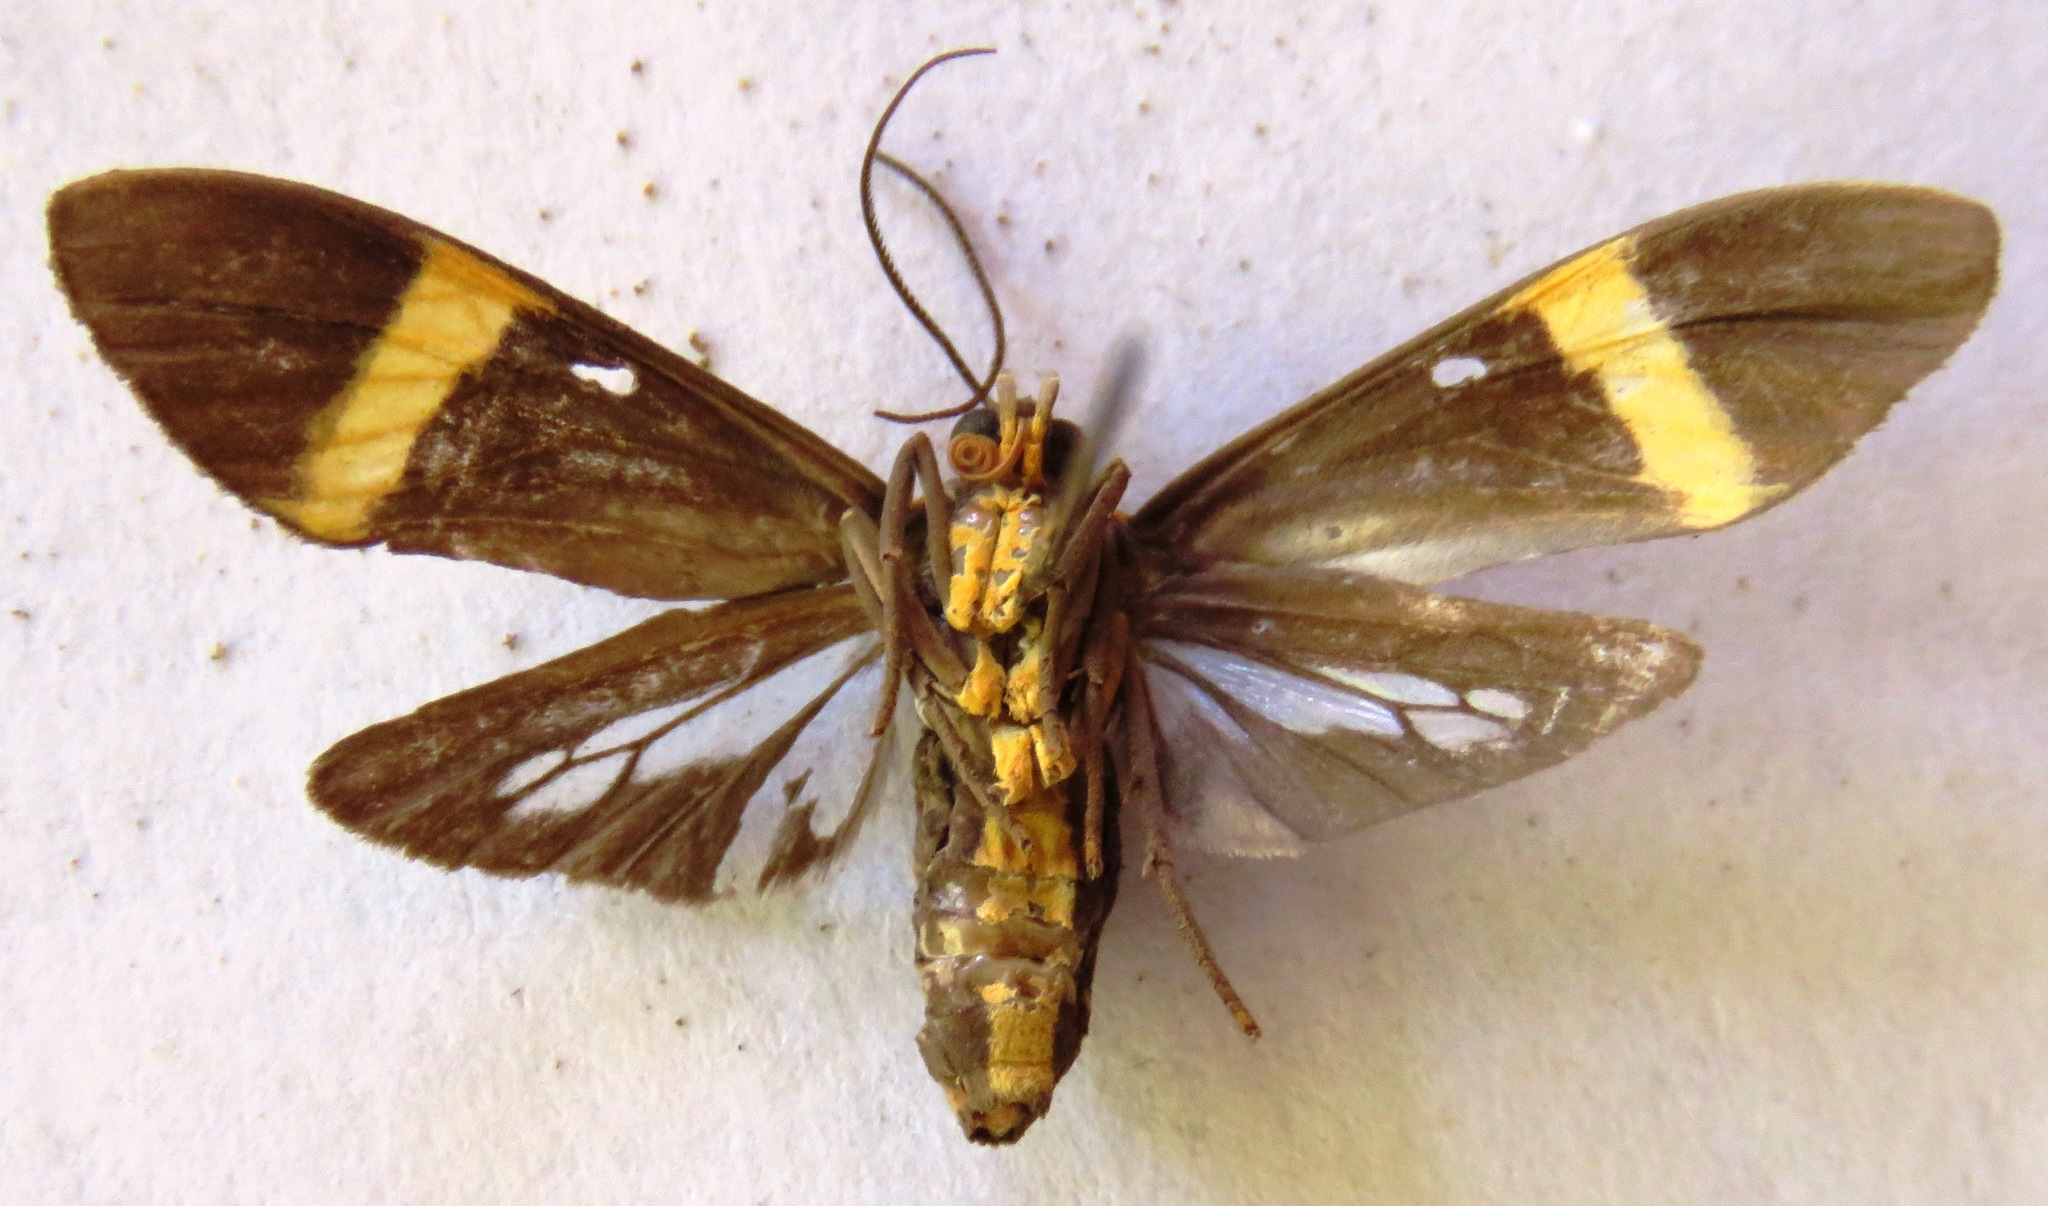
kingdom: Animalia
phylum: Arthropoda
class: Insecta
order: Lepidoptera
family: Erebidae
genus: Aclytia
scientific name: Aclytia heber
